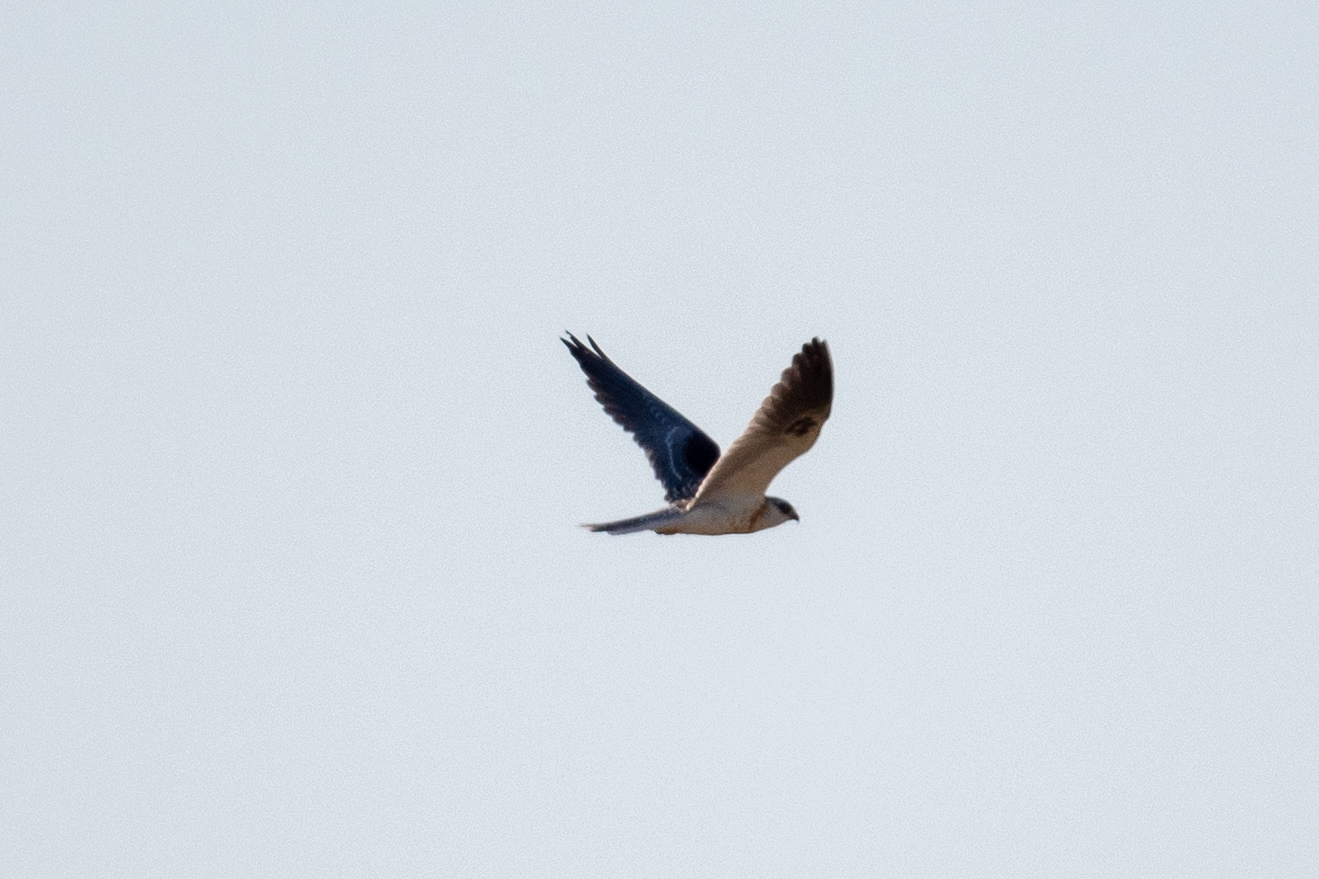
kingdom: Animalia
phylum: Chordata
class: Aves
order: Accipitriformes
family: Accipitridae
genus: Elanus
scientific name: Elanus leucurus
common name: White-tailed kite
